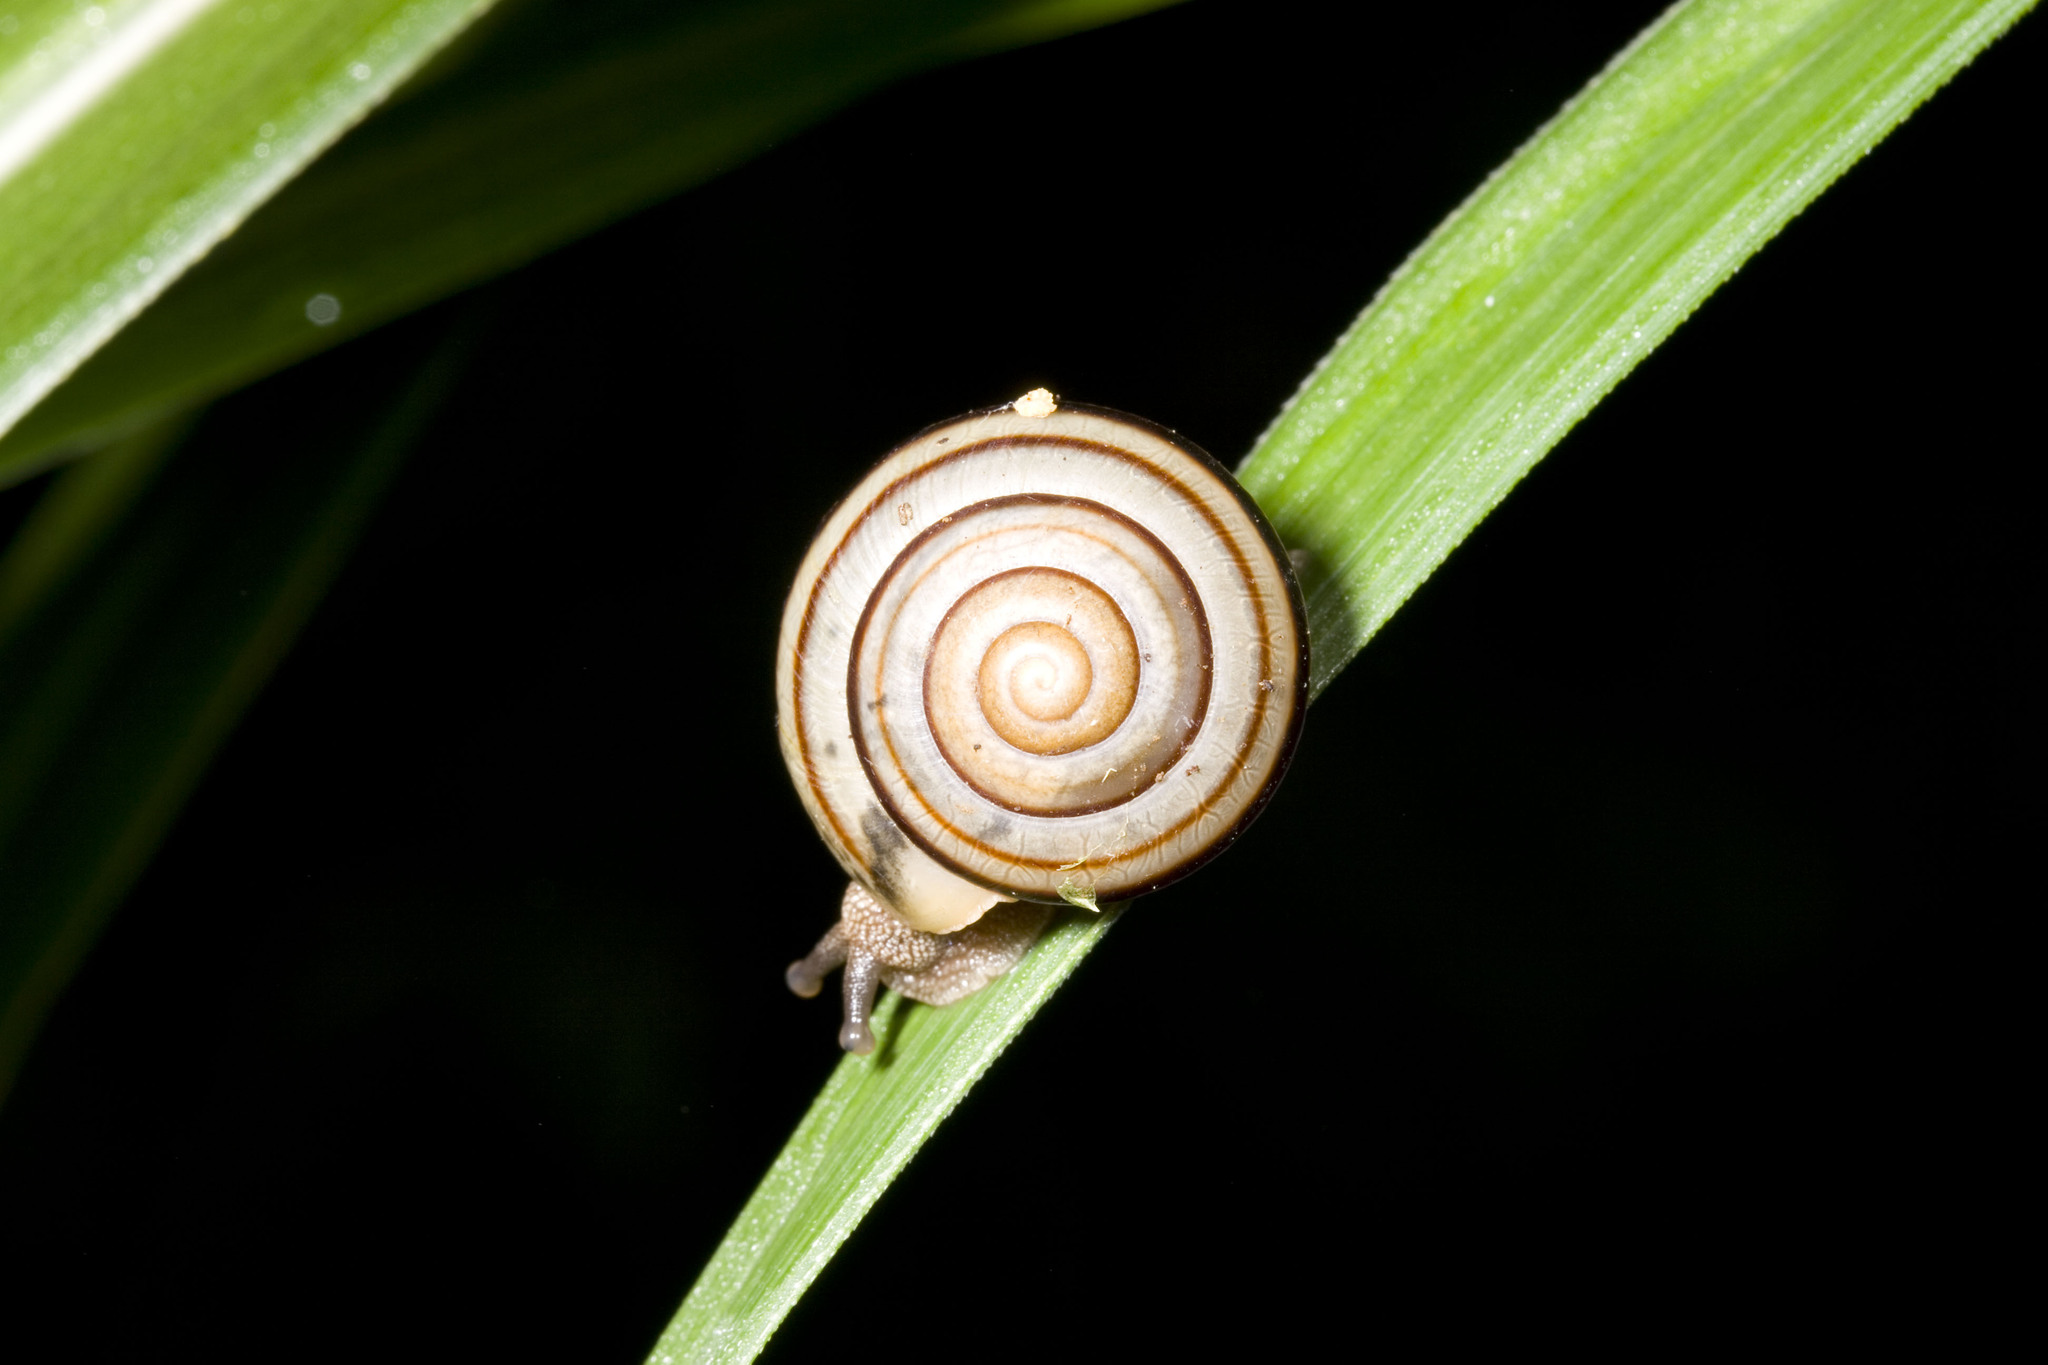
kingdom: Animalia
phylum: Mollusca
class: Gastropoda
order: Stylommatophora
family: Camaenidae
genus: Pancala
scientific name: Pancala batanica
